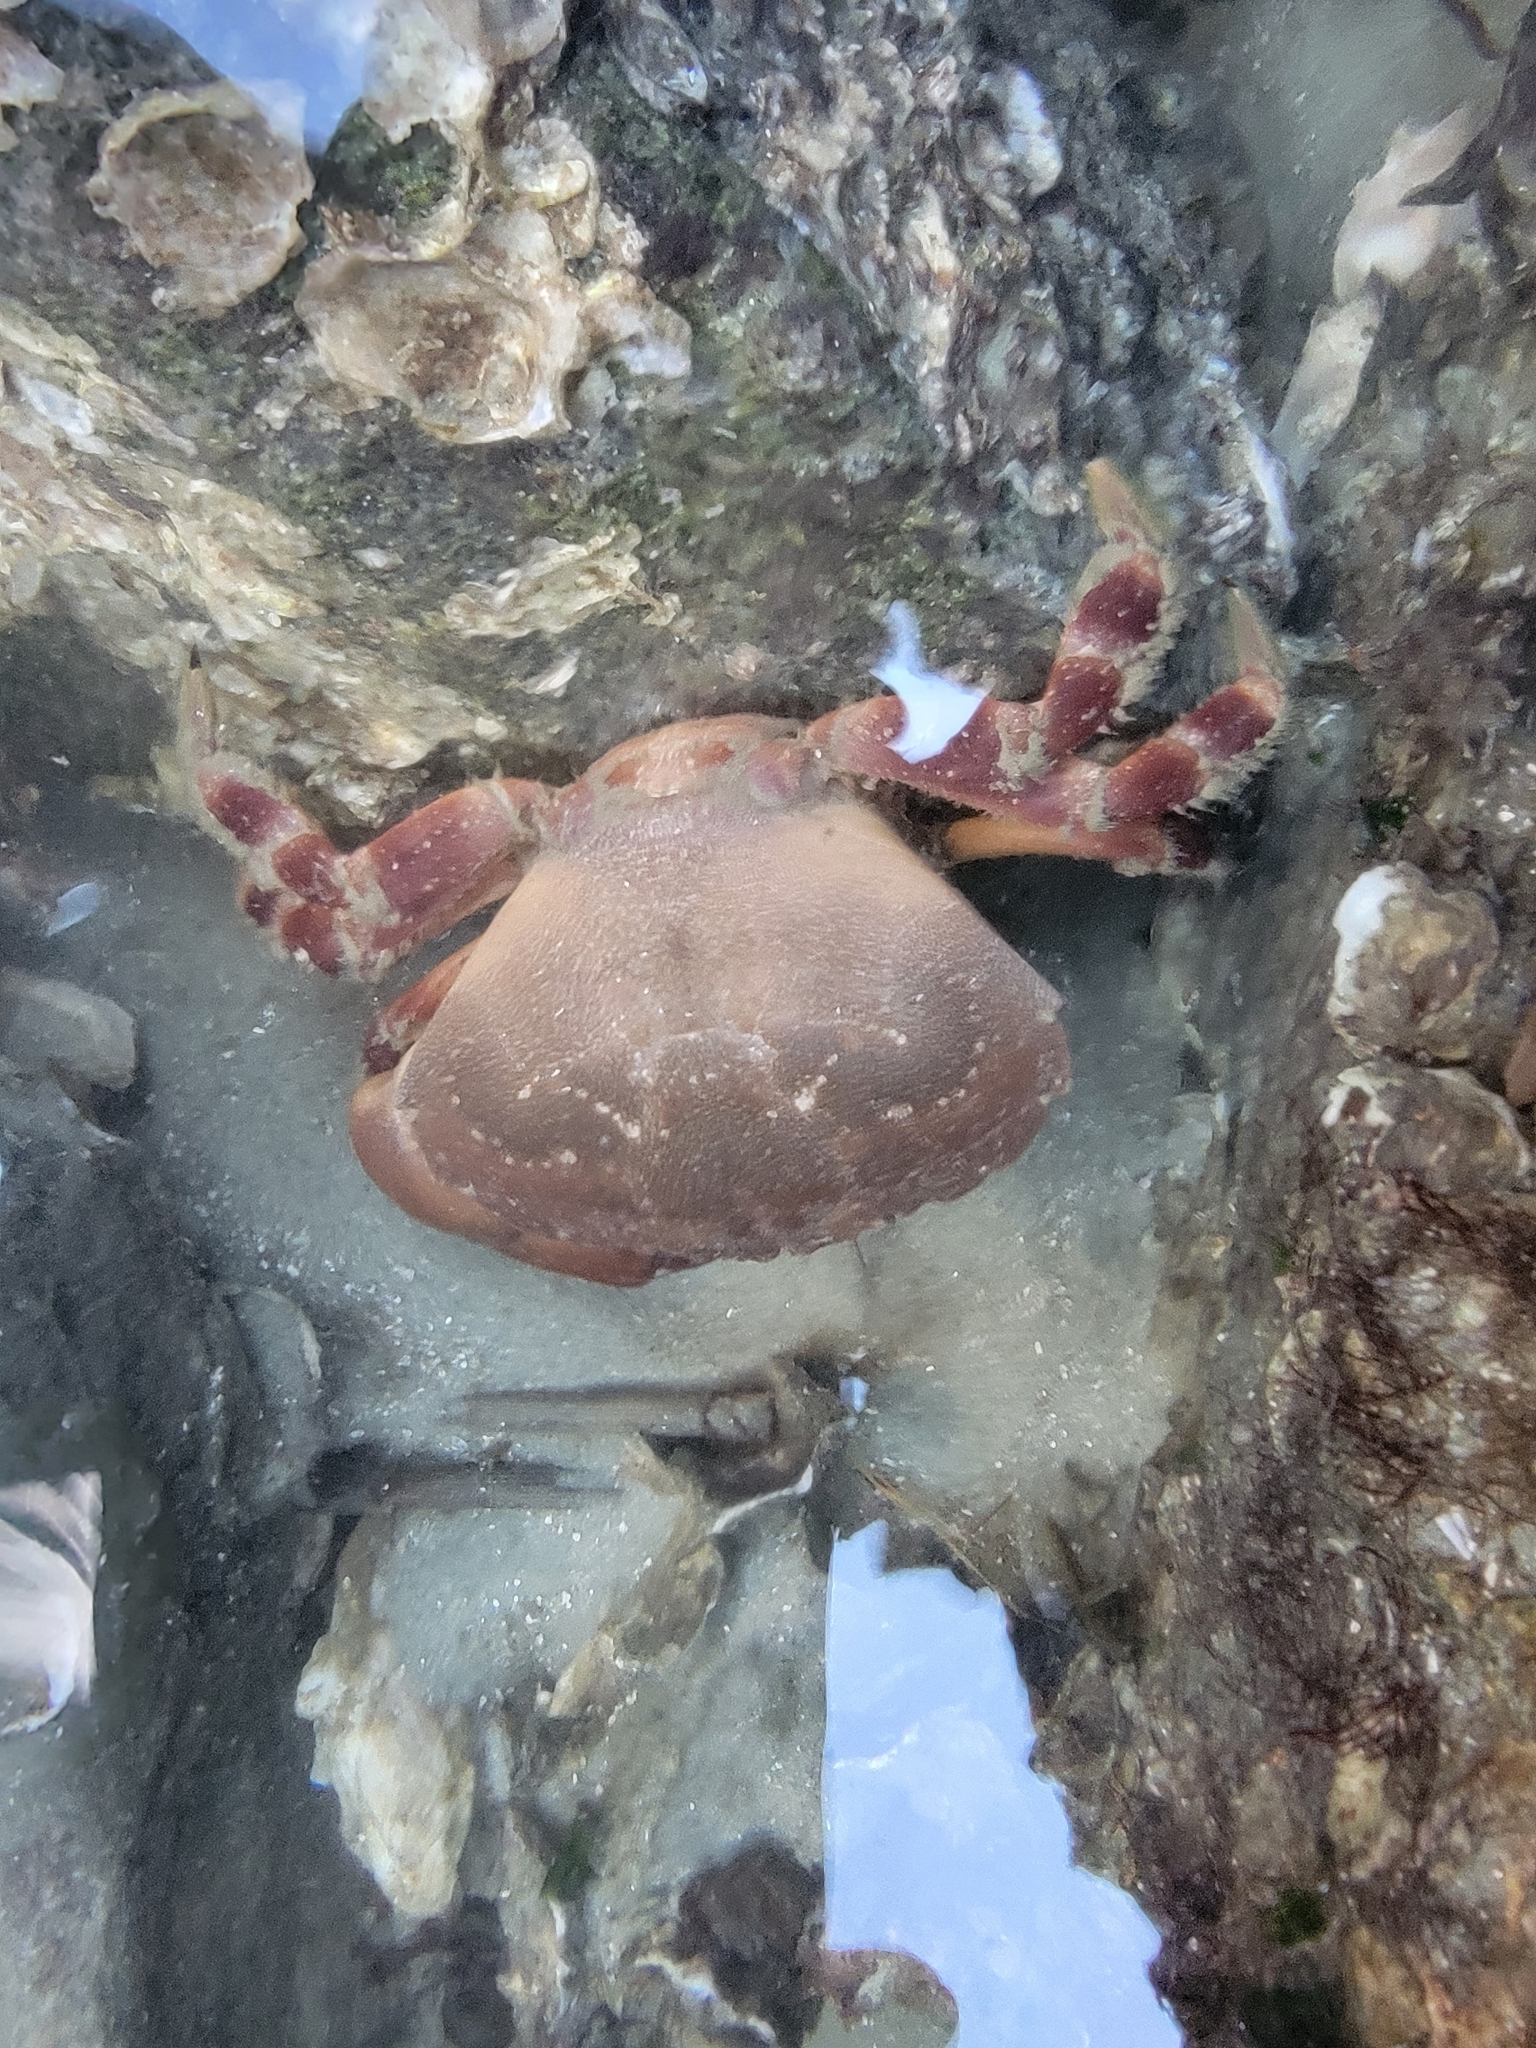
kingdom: Animalia
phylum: Arthropoda
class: Malacostraca
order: Decapoda
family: Menippidae
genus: Menippe
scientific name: Menippe mercenaria
